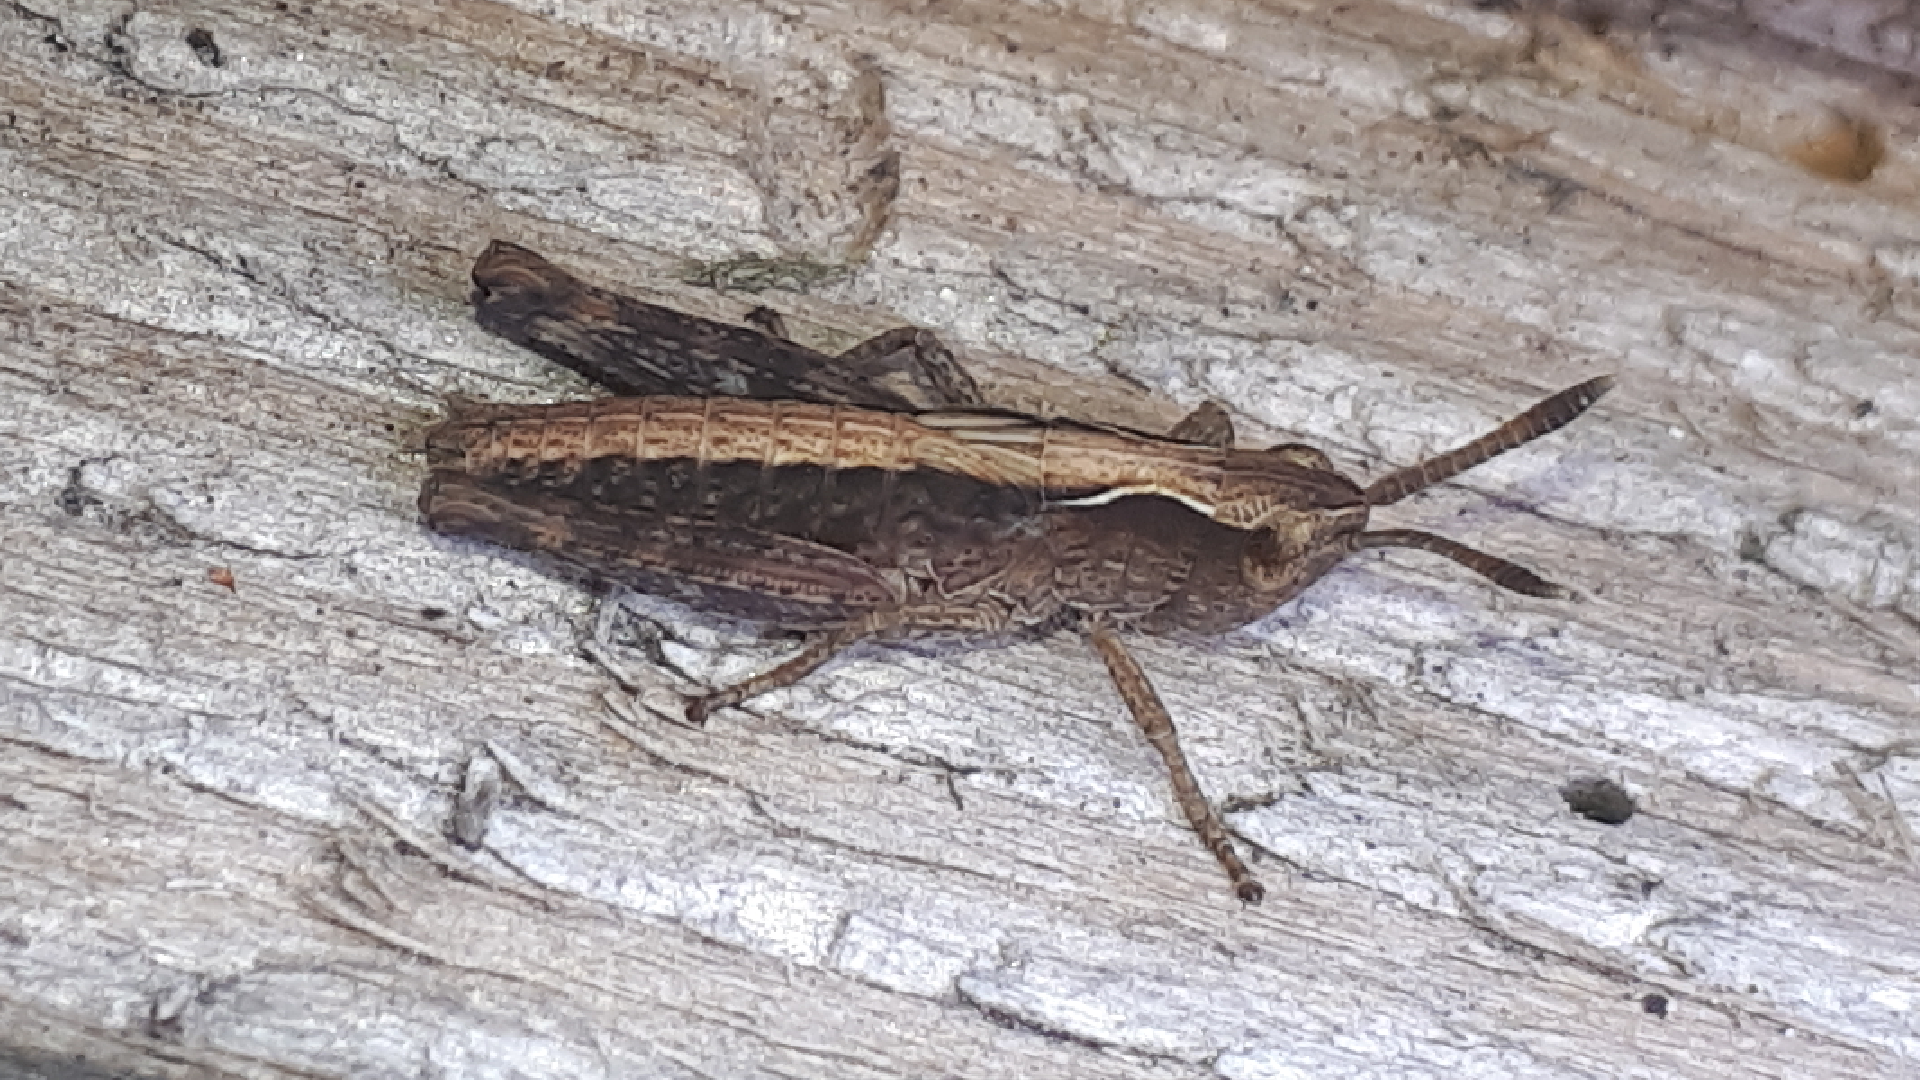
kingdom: Animalia
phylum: Arthropoda
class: Insecta
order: Orthoptera
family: Acrididae
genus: Gomphocerippus
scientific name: Gomphocerippus rufus
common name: Rufous grasshopper
